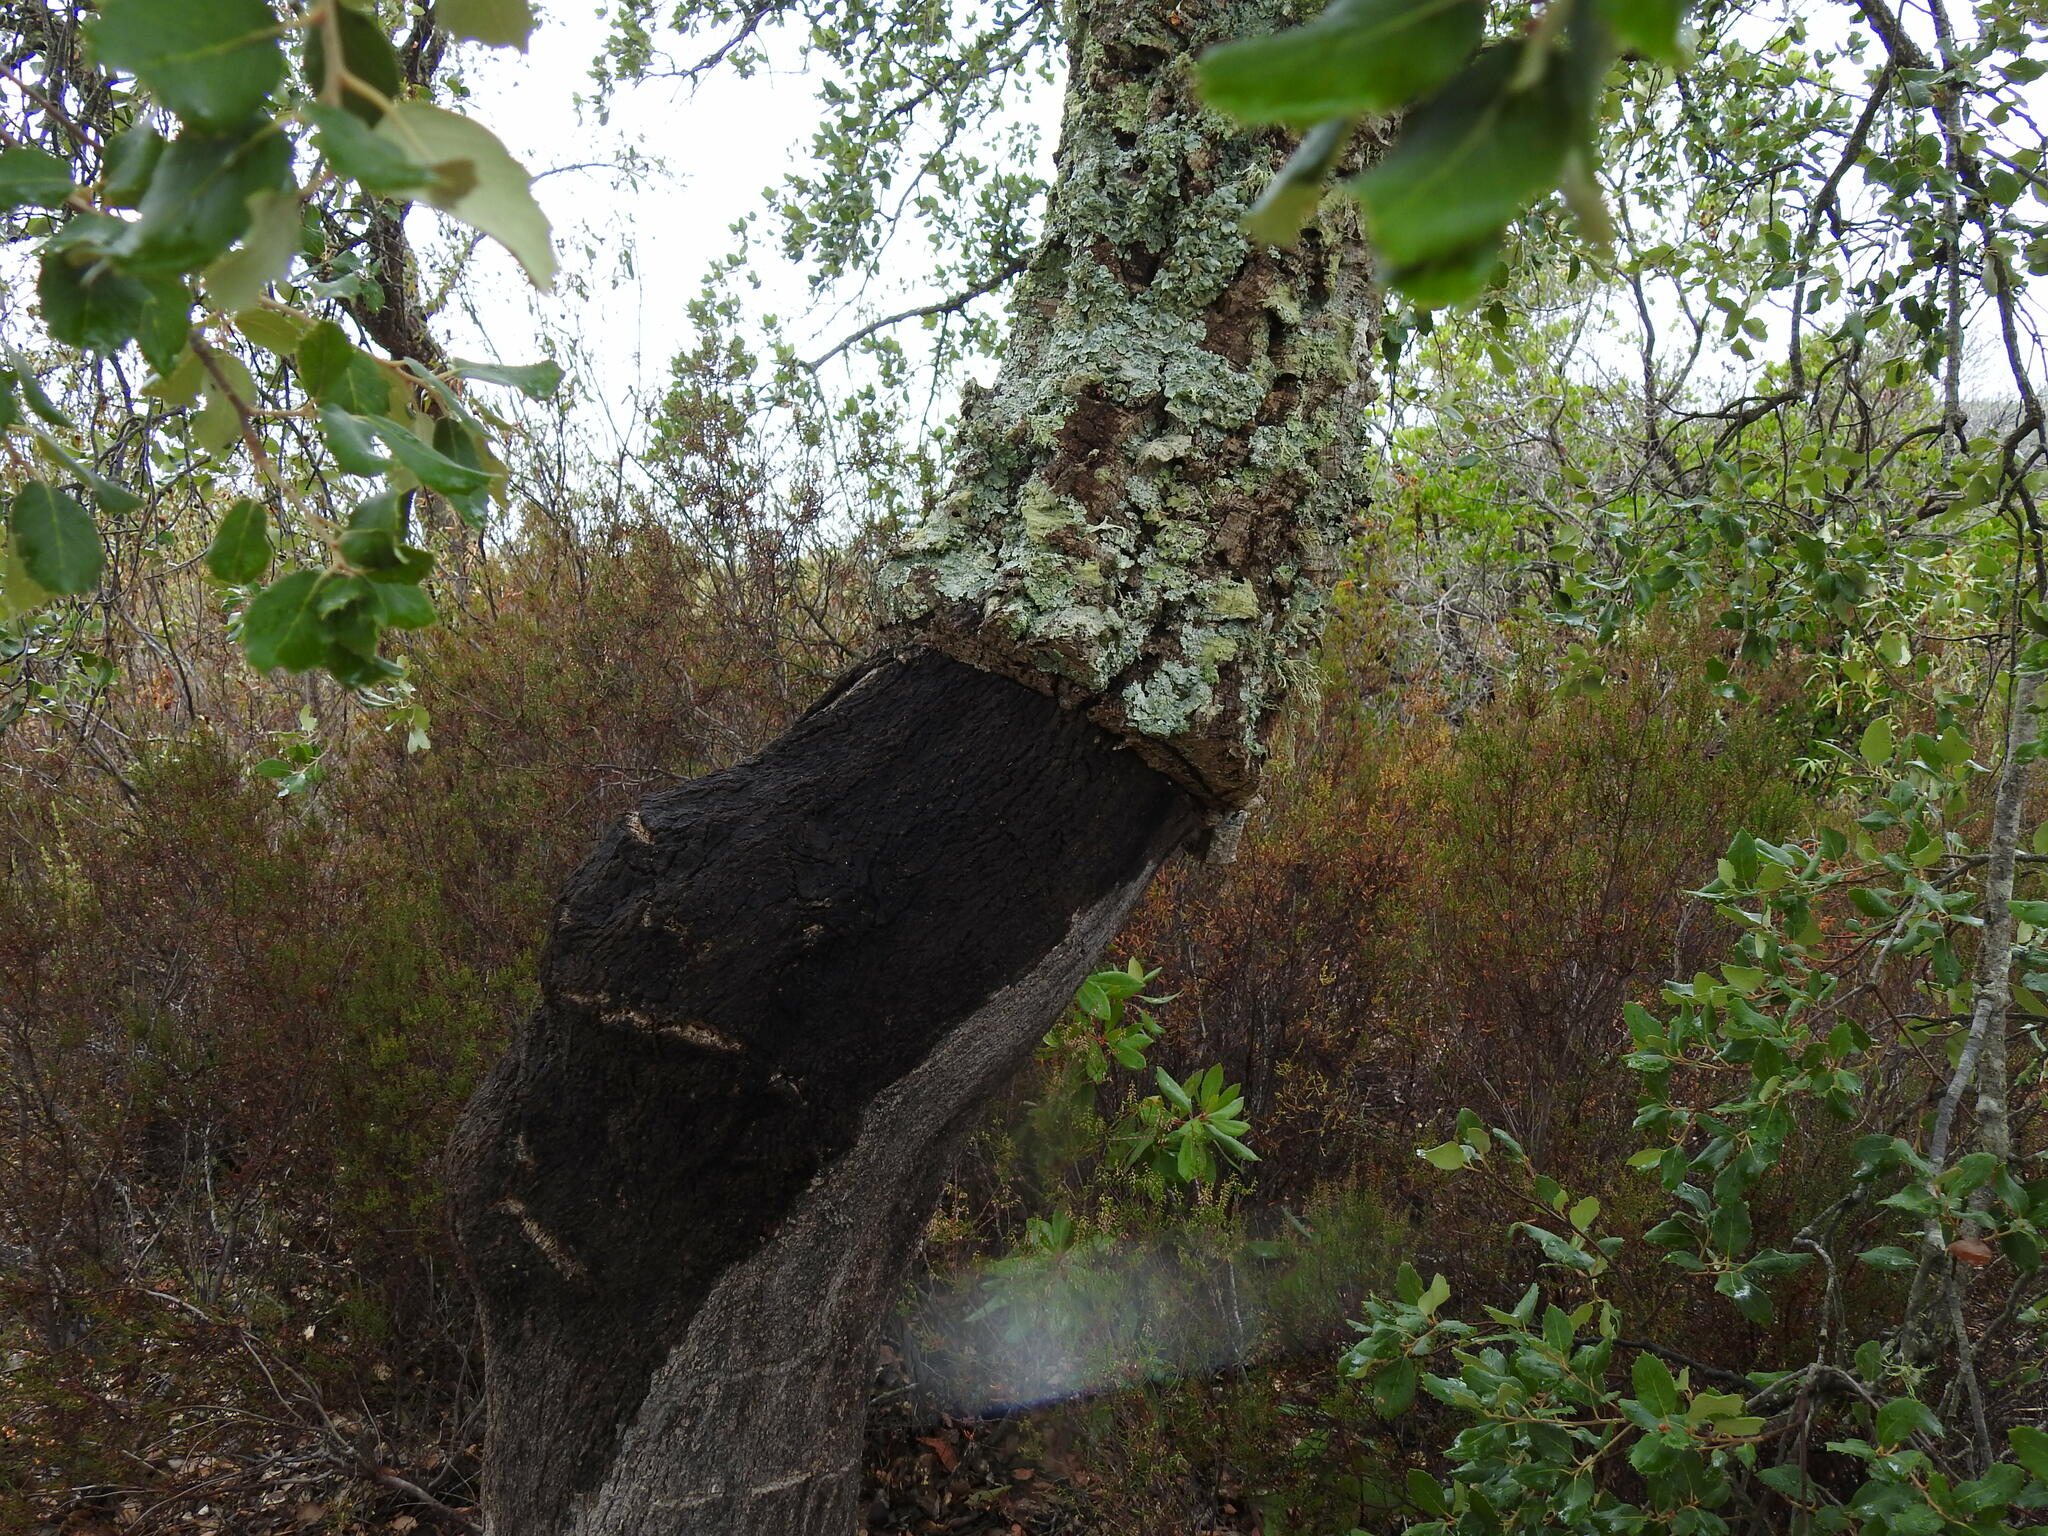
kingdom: Plantae
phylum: Tracheophyta
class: Magnoliopsida
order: Fagales
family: Fagaceae
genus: Quercus
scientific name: Quercus suber
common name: Cork oak
